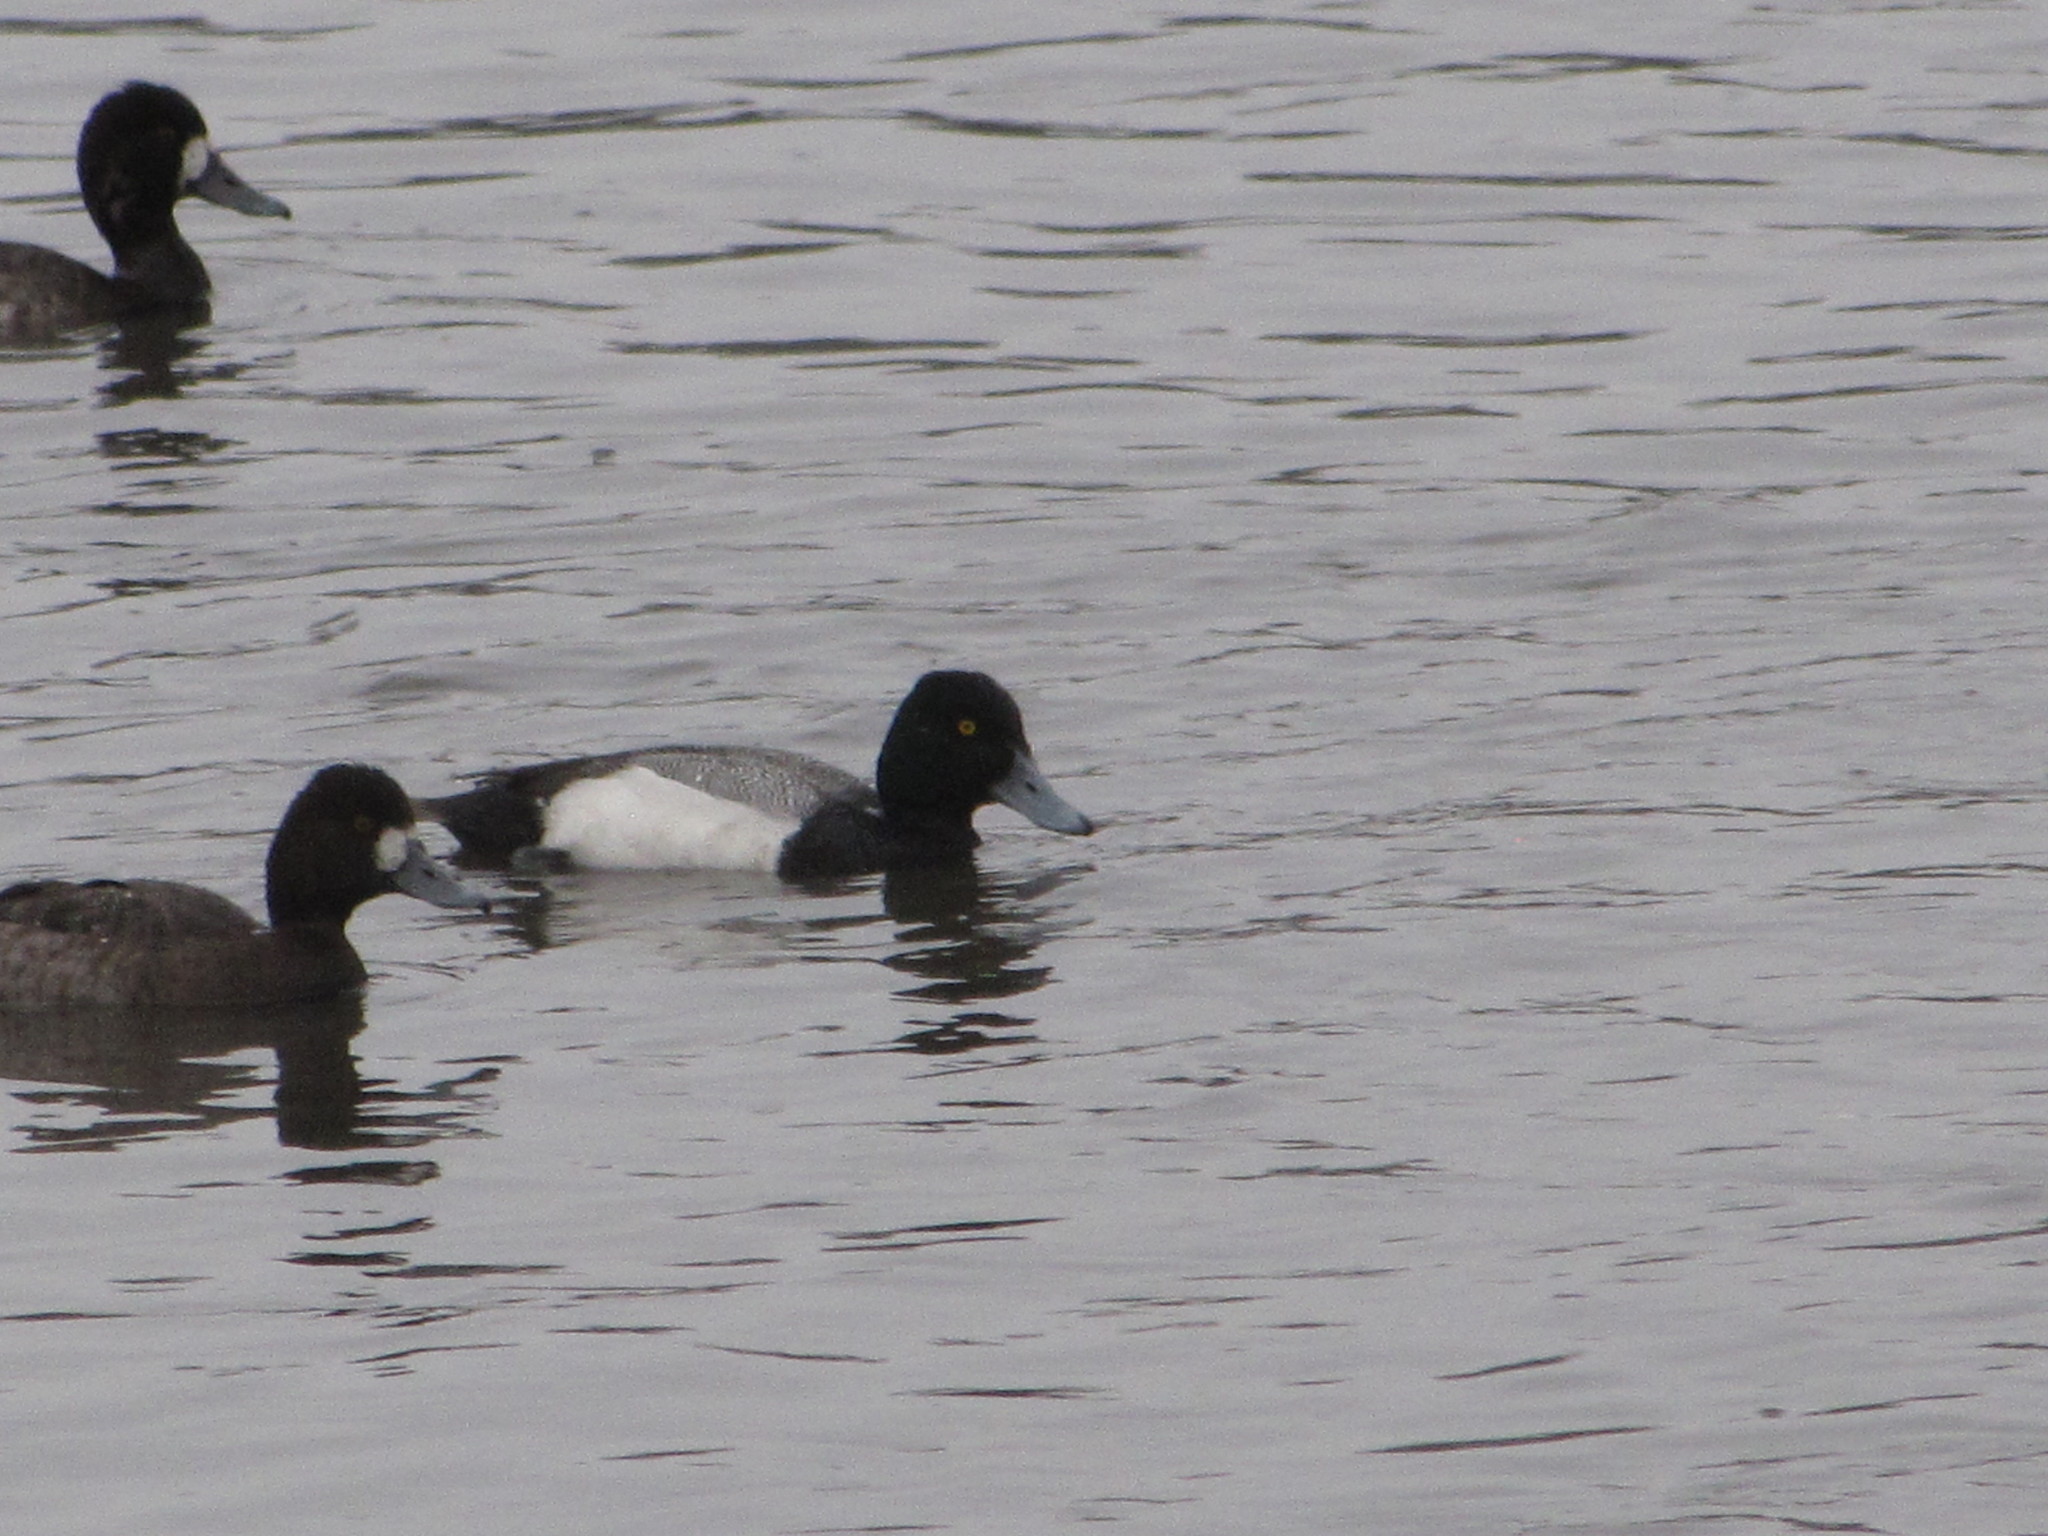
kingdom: Animalia
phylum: Chordata
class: Aves
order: Anseriformes
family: Anatidae
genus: Aythya
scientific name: Aythya affinis
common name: Lesser scaup
